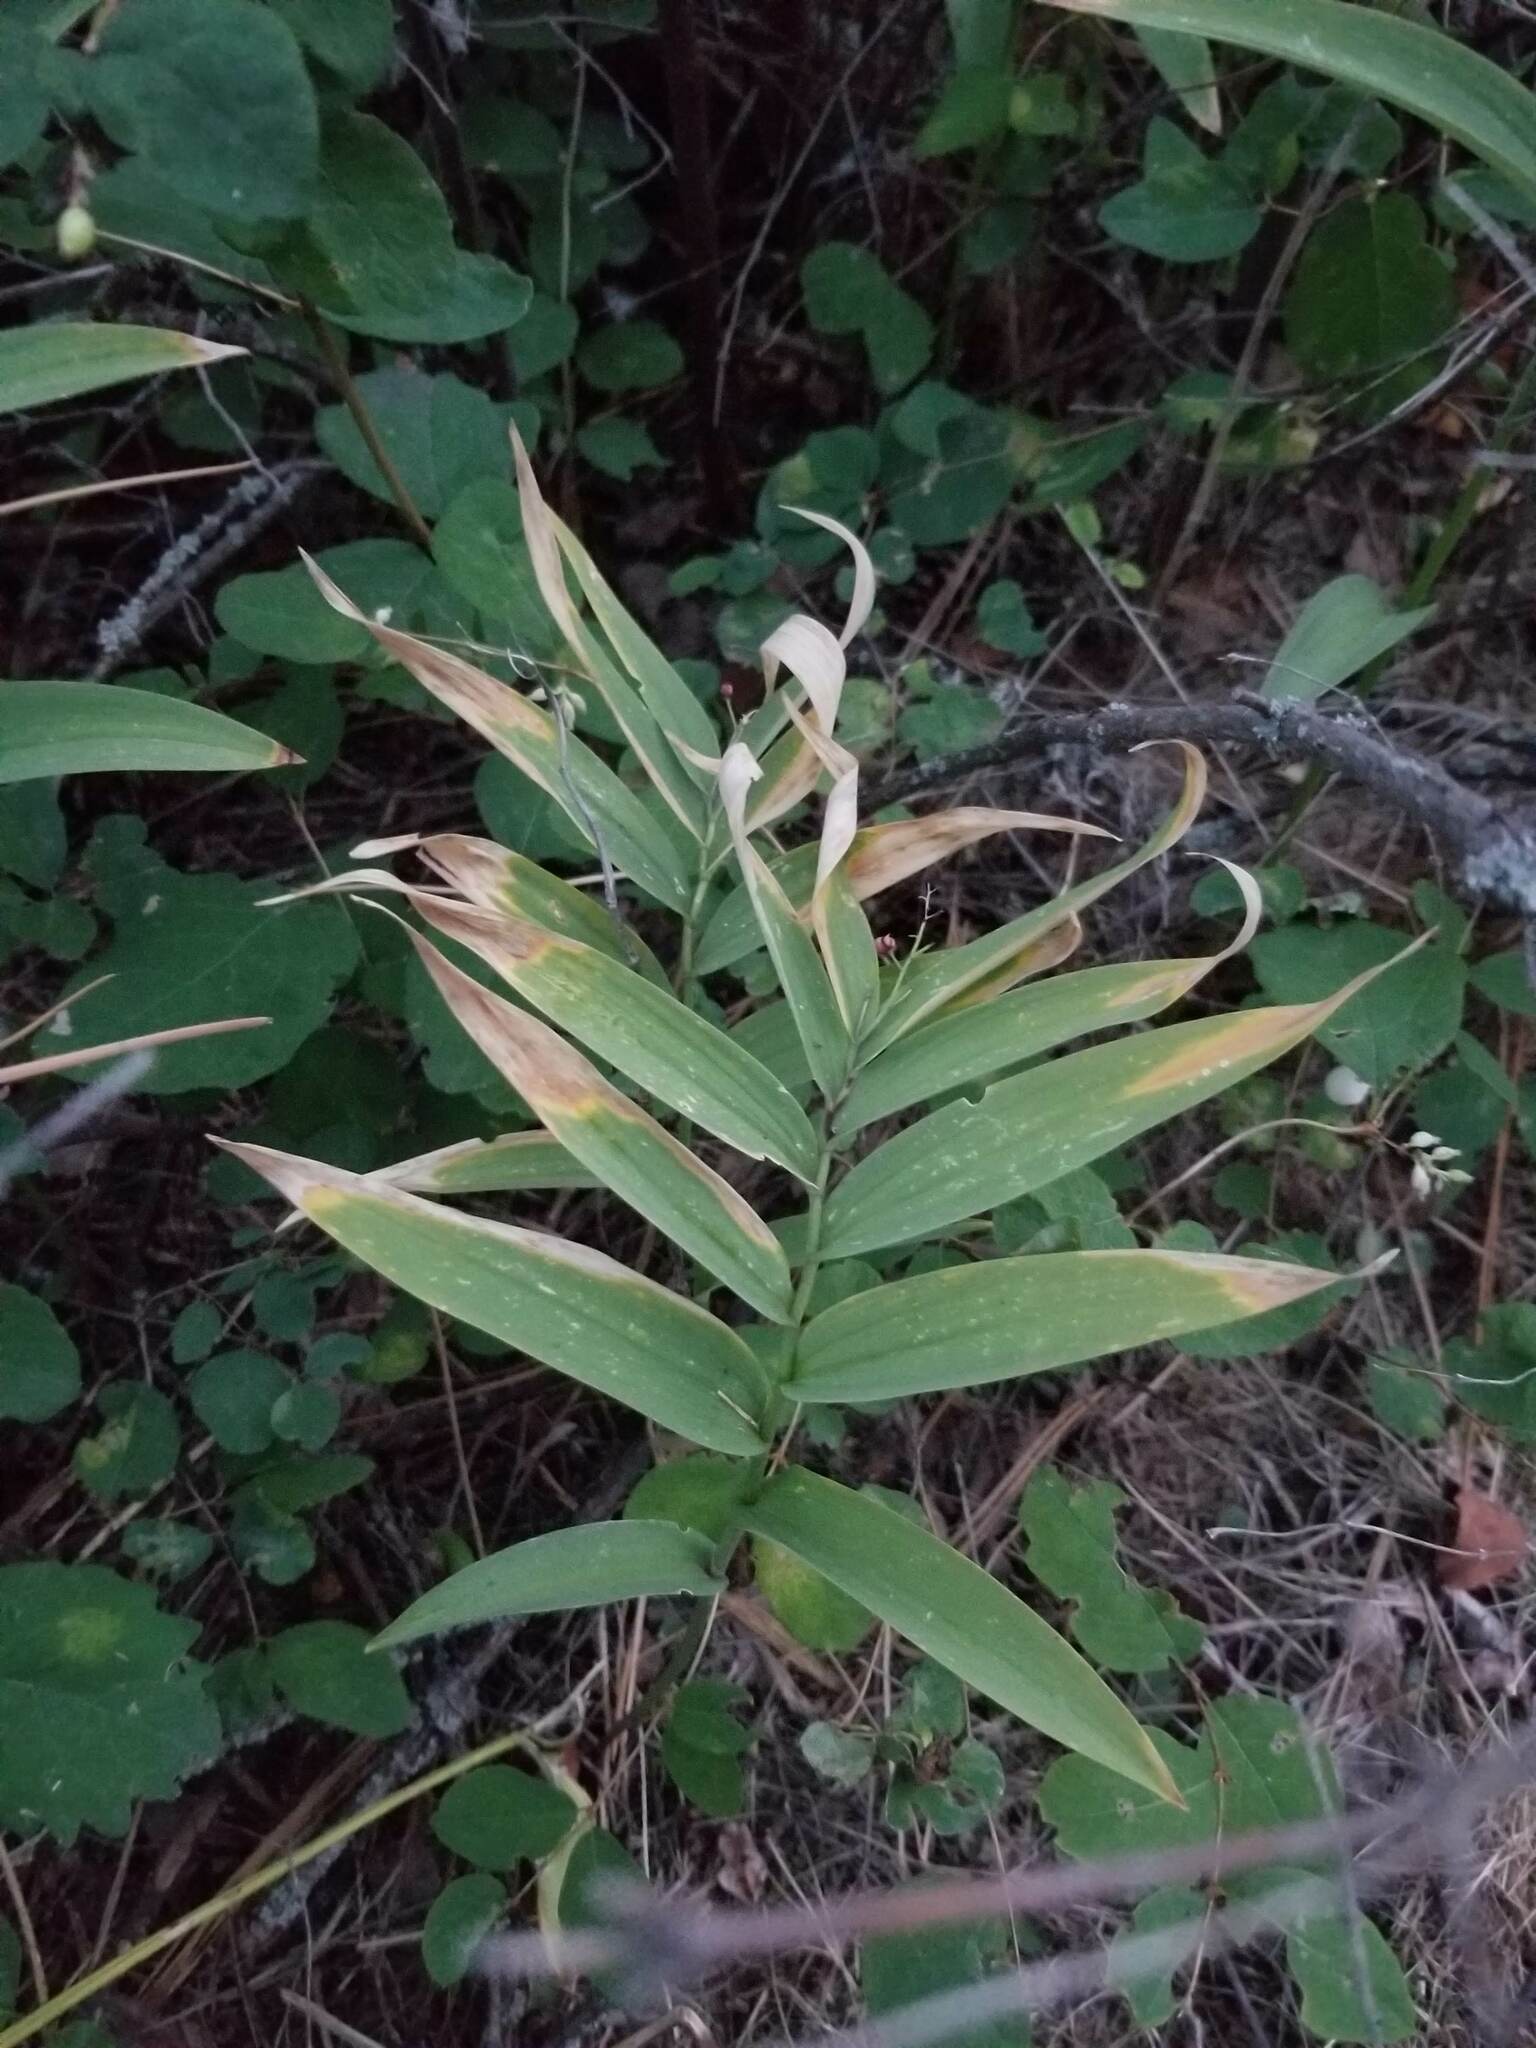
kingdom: Plantae
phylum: Tracheophyta
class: Liliopsida
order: Asparagales
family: Asparagaceae
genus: Maianthemum
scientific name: Maianthemum stellatum
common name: Little false solomon's seal
